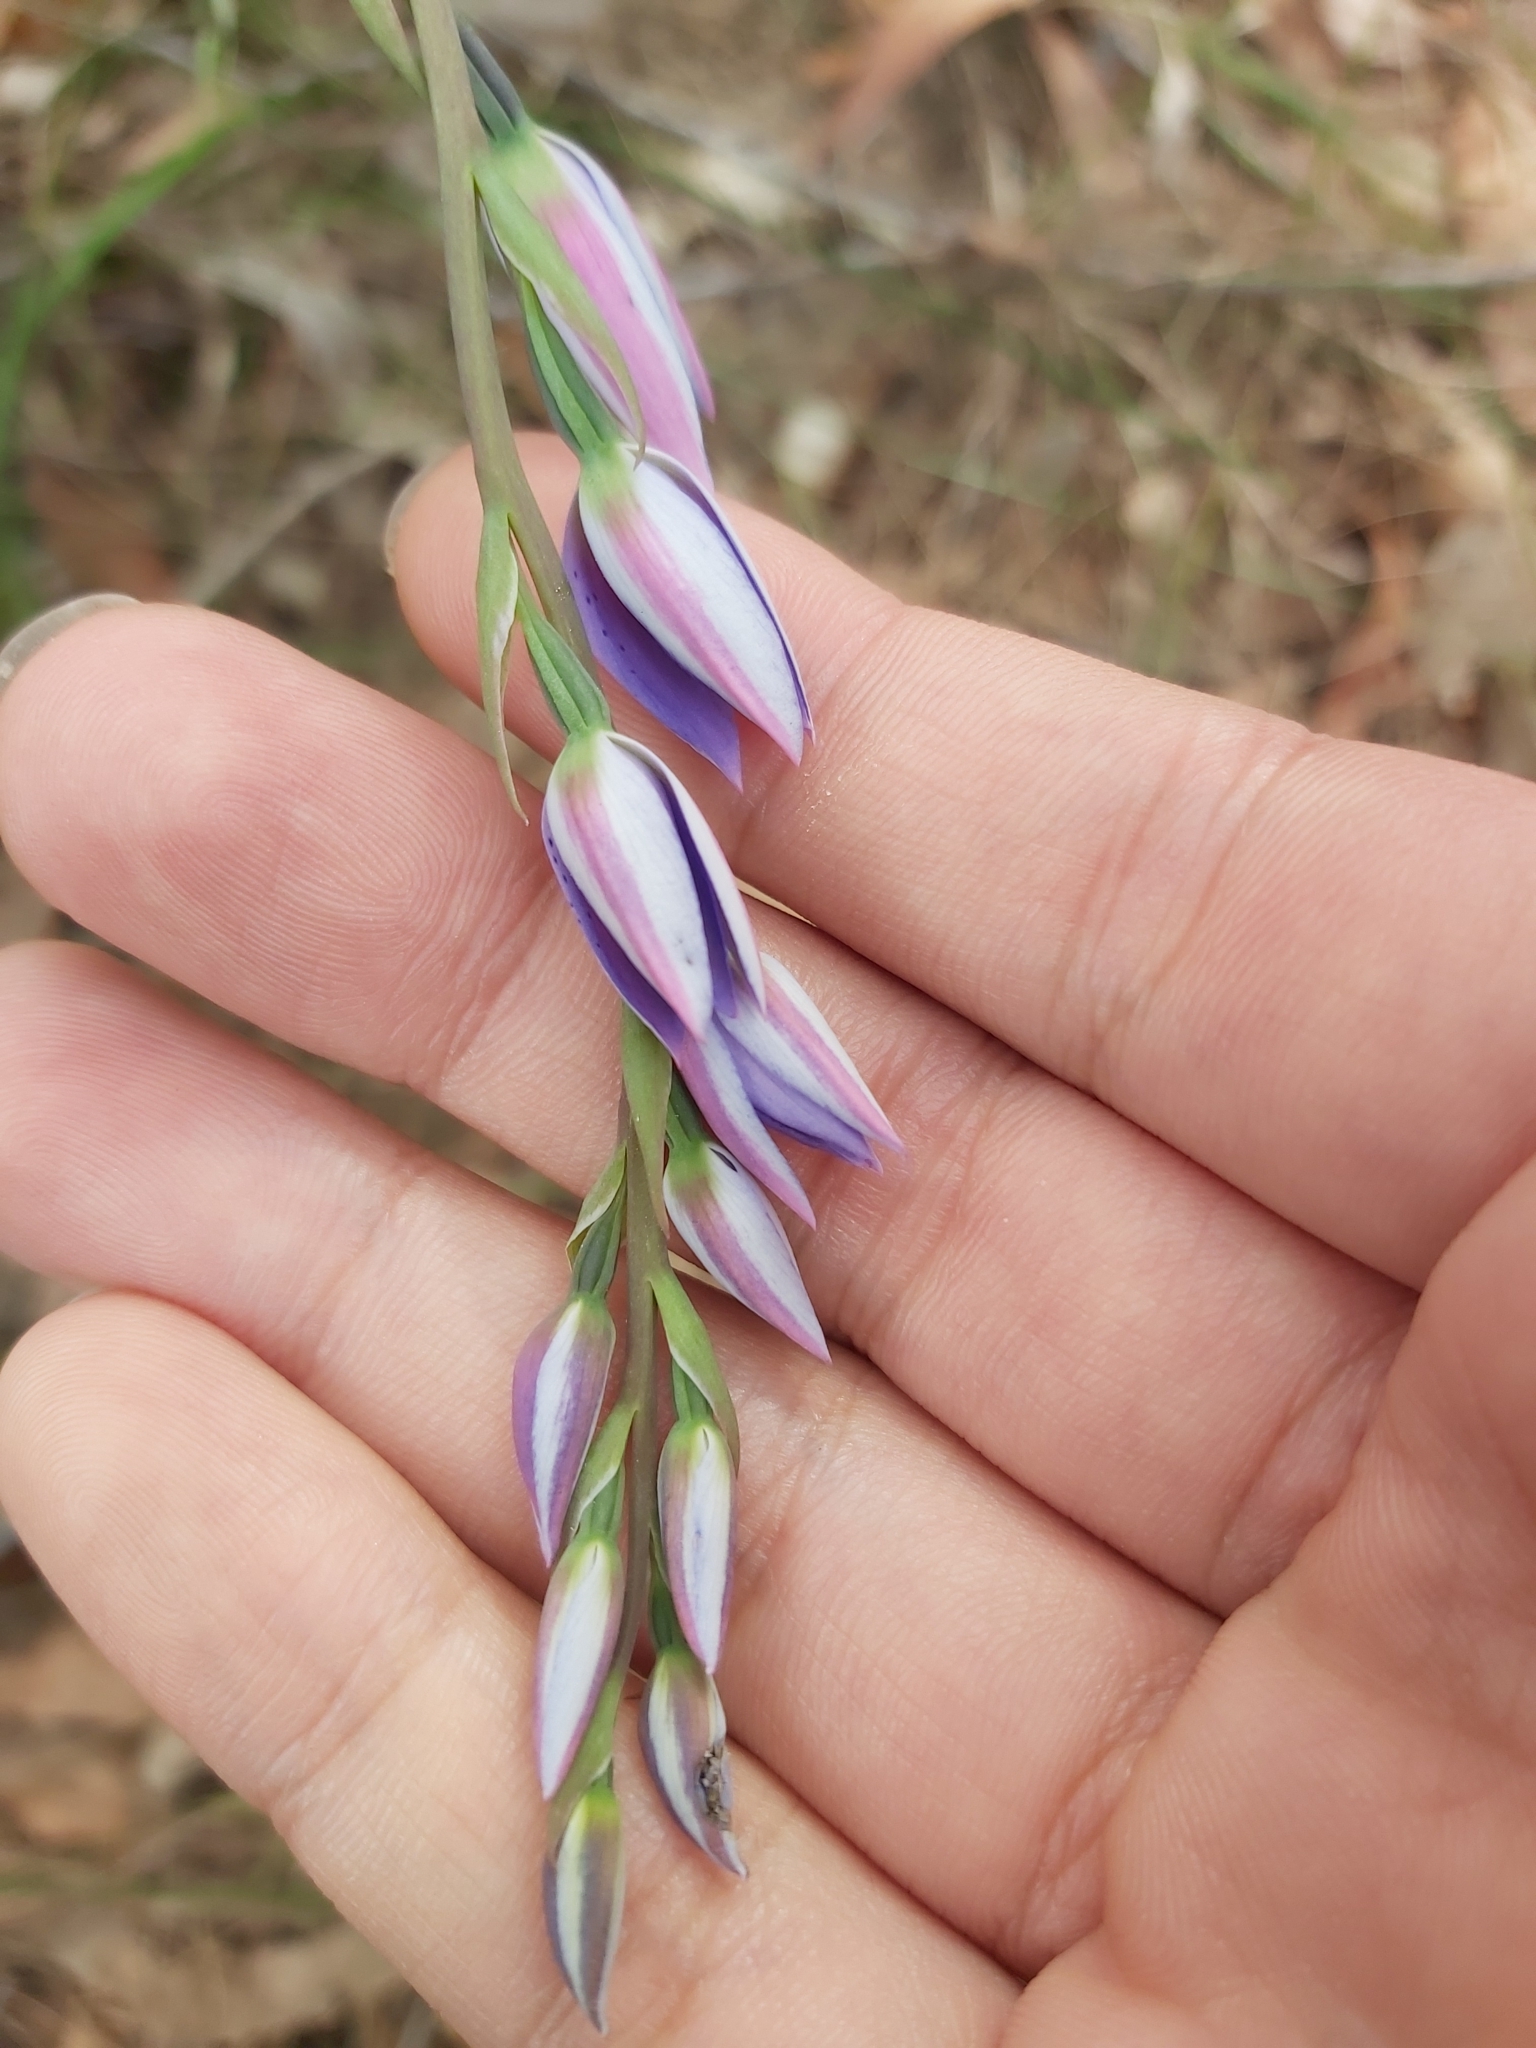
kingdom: Plantae
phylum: Tracheophyta
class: Liliopsida
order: Asparagales
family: Orchidaceae
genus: Thelymitra
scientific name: Thelymitra ixioides
